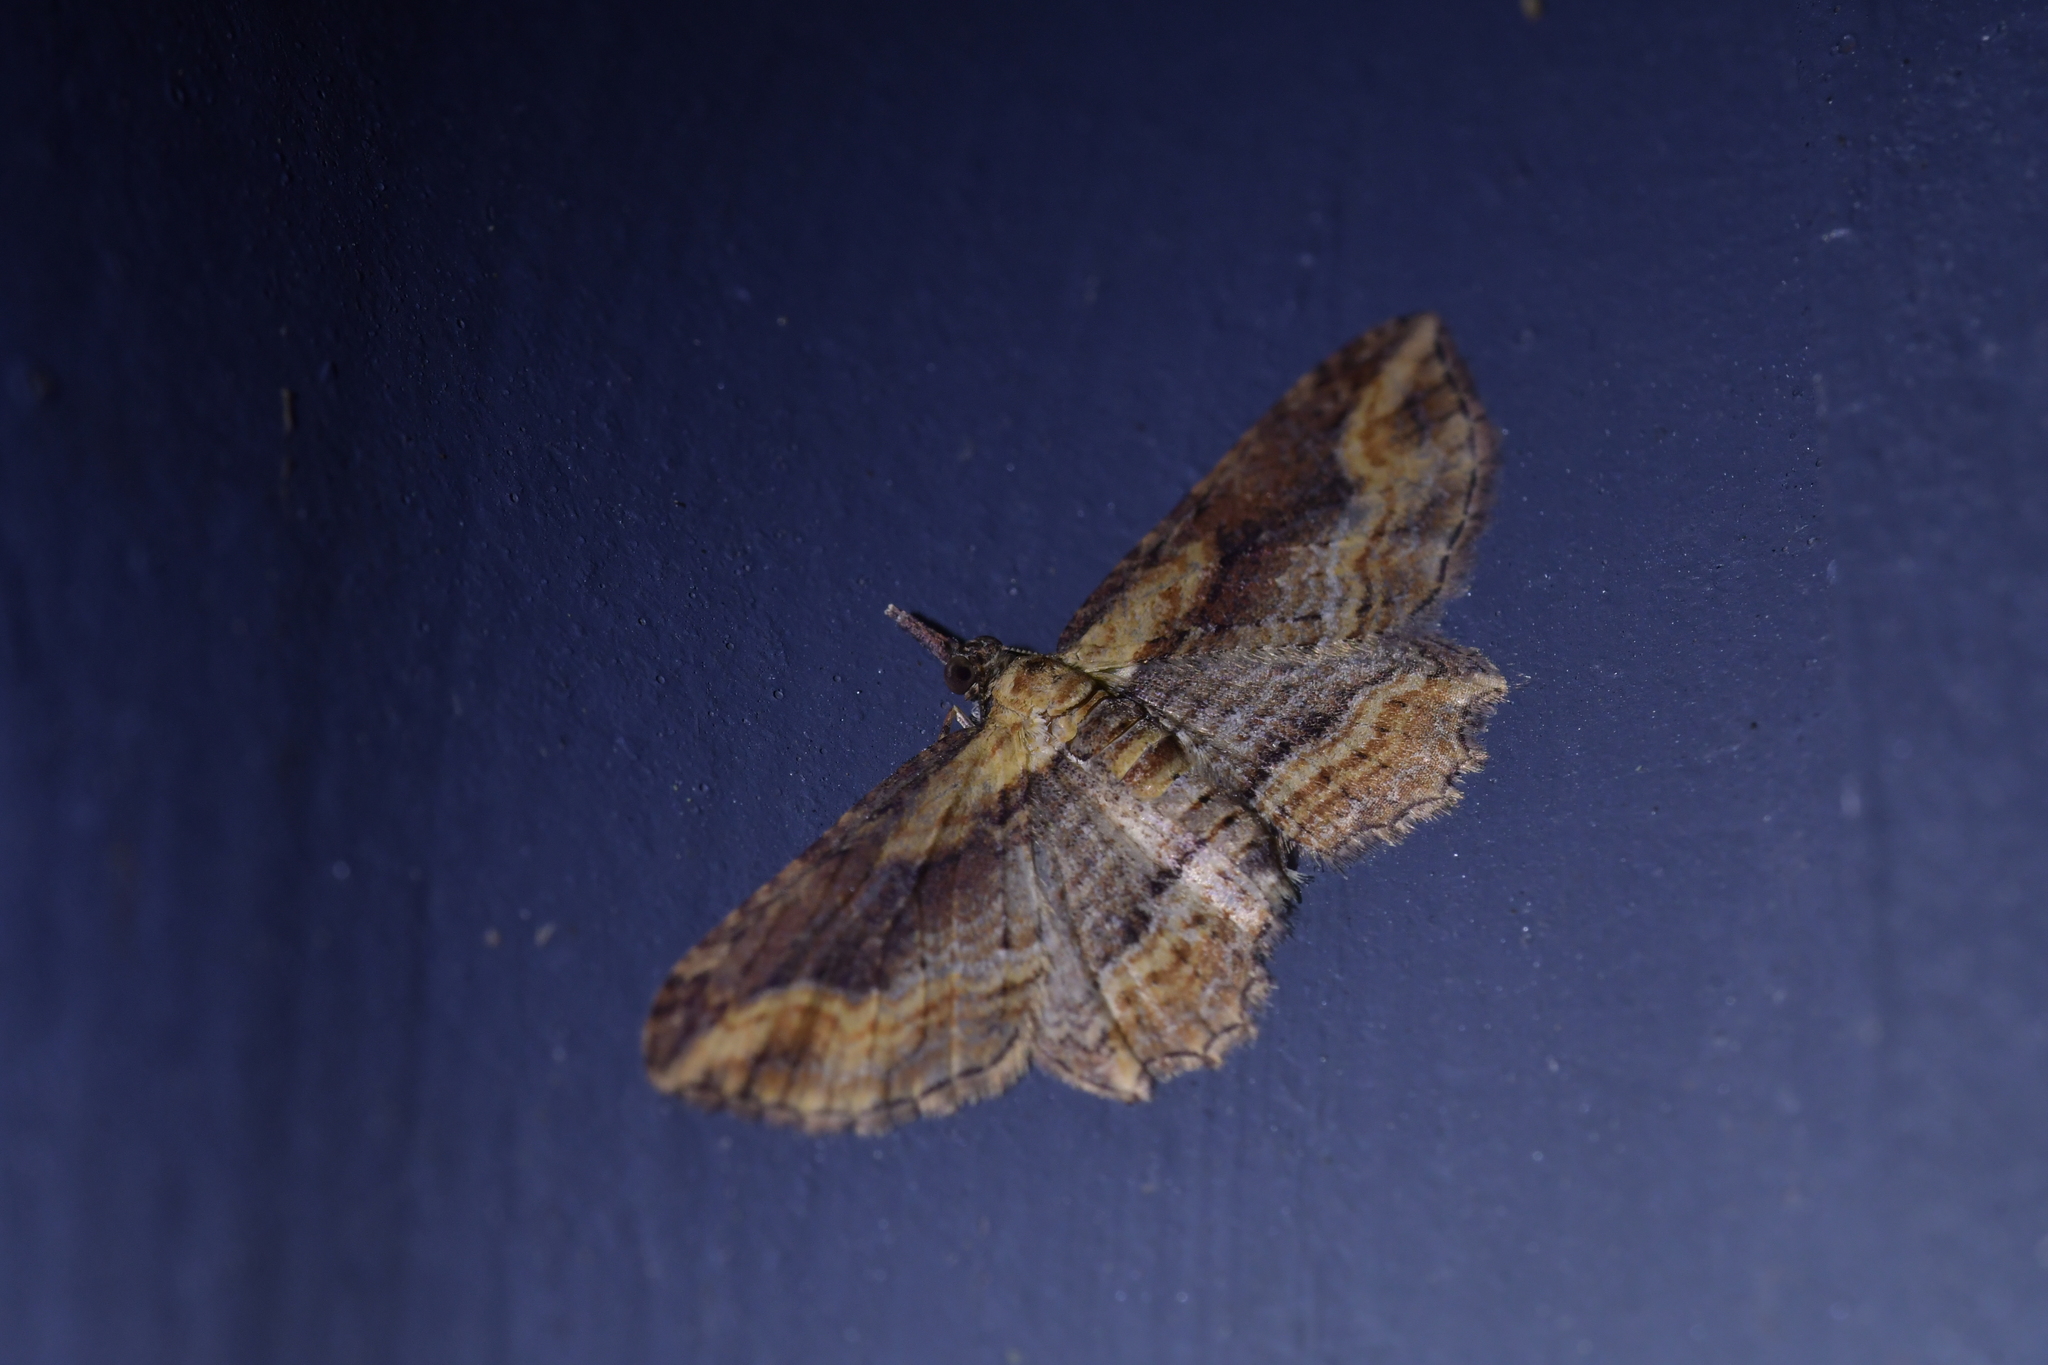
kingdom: Animalia
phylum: Arthropoda
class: Insecta
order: Lepidoptera
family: Geometridae
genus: Chloroclystis
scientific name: Chloroclystis filata
